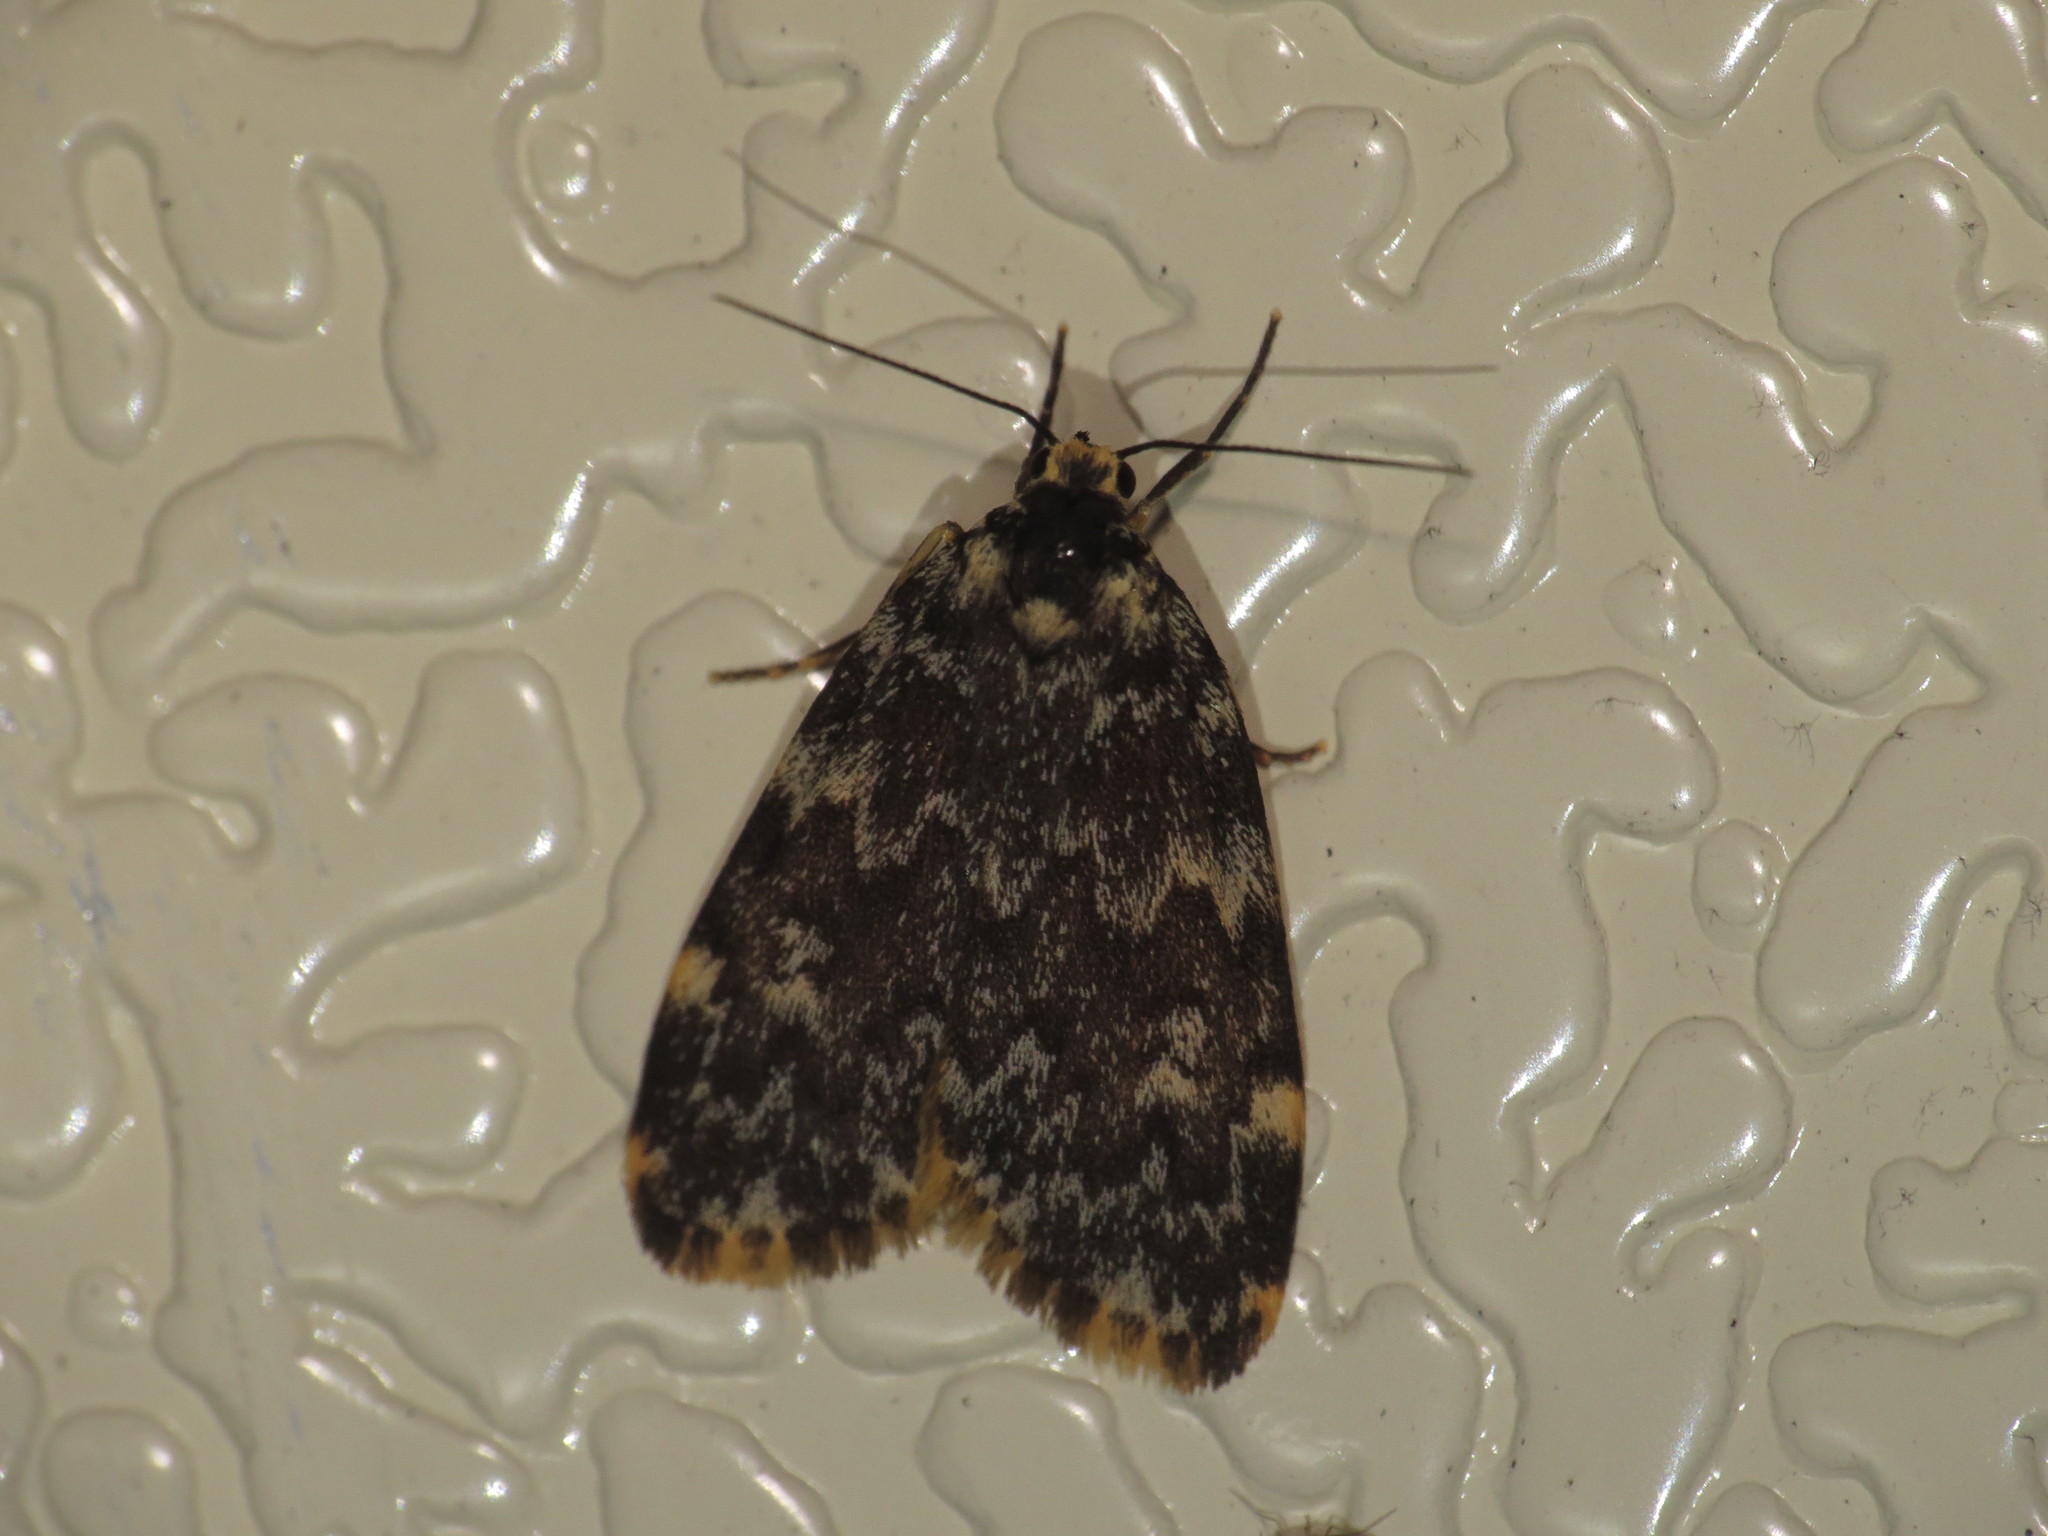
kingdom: Animalia
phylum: Arthropoda
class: Insecta
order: Lepidoptera
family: Erebidae
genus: Halone
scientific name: Halone coryphoea
